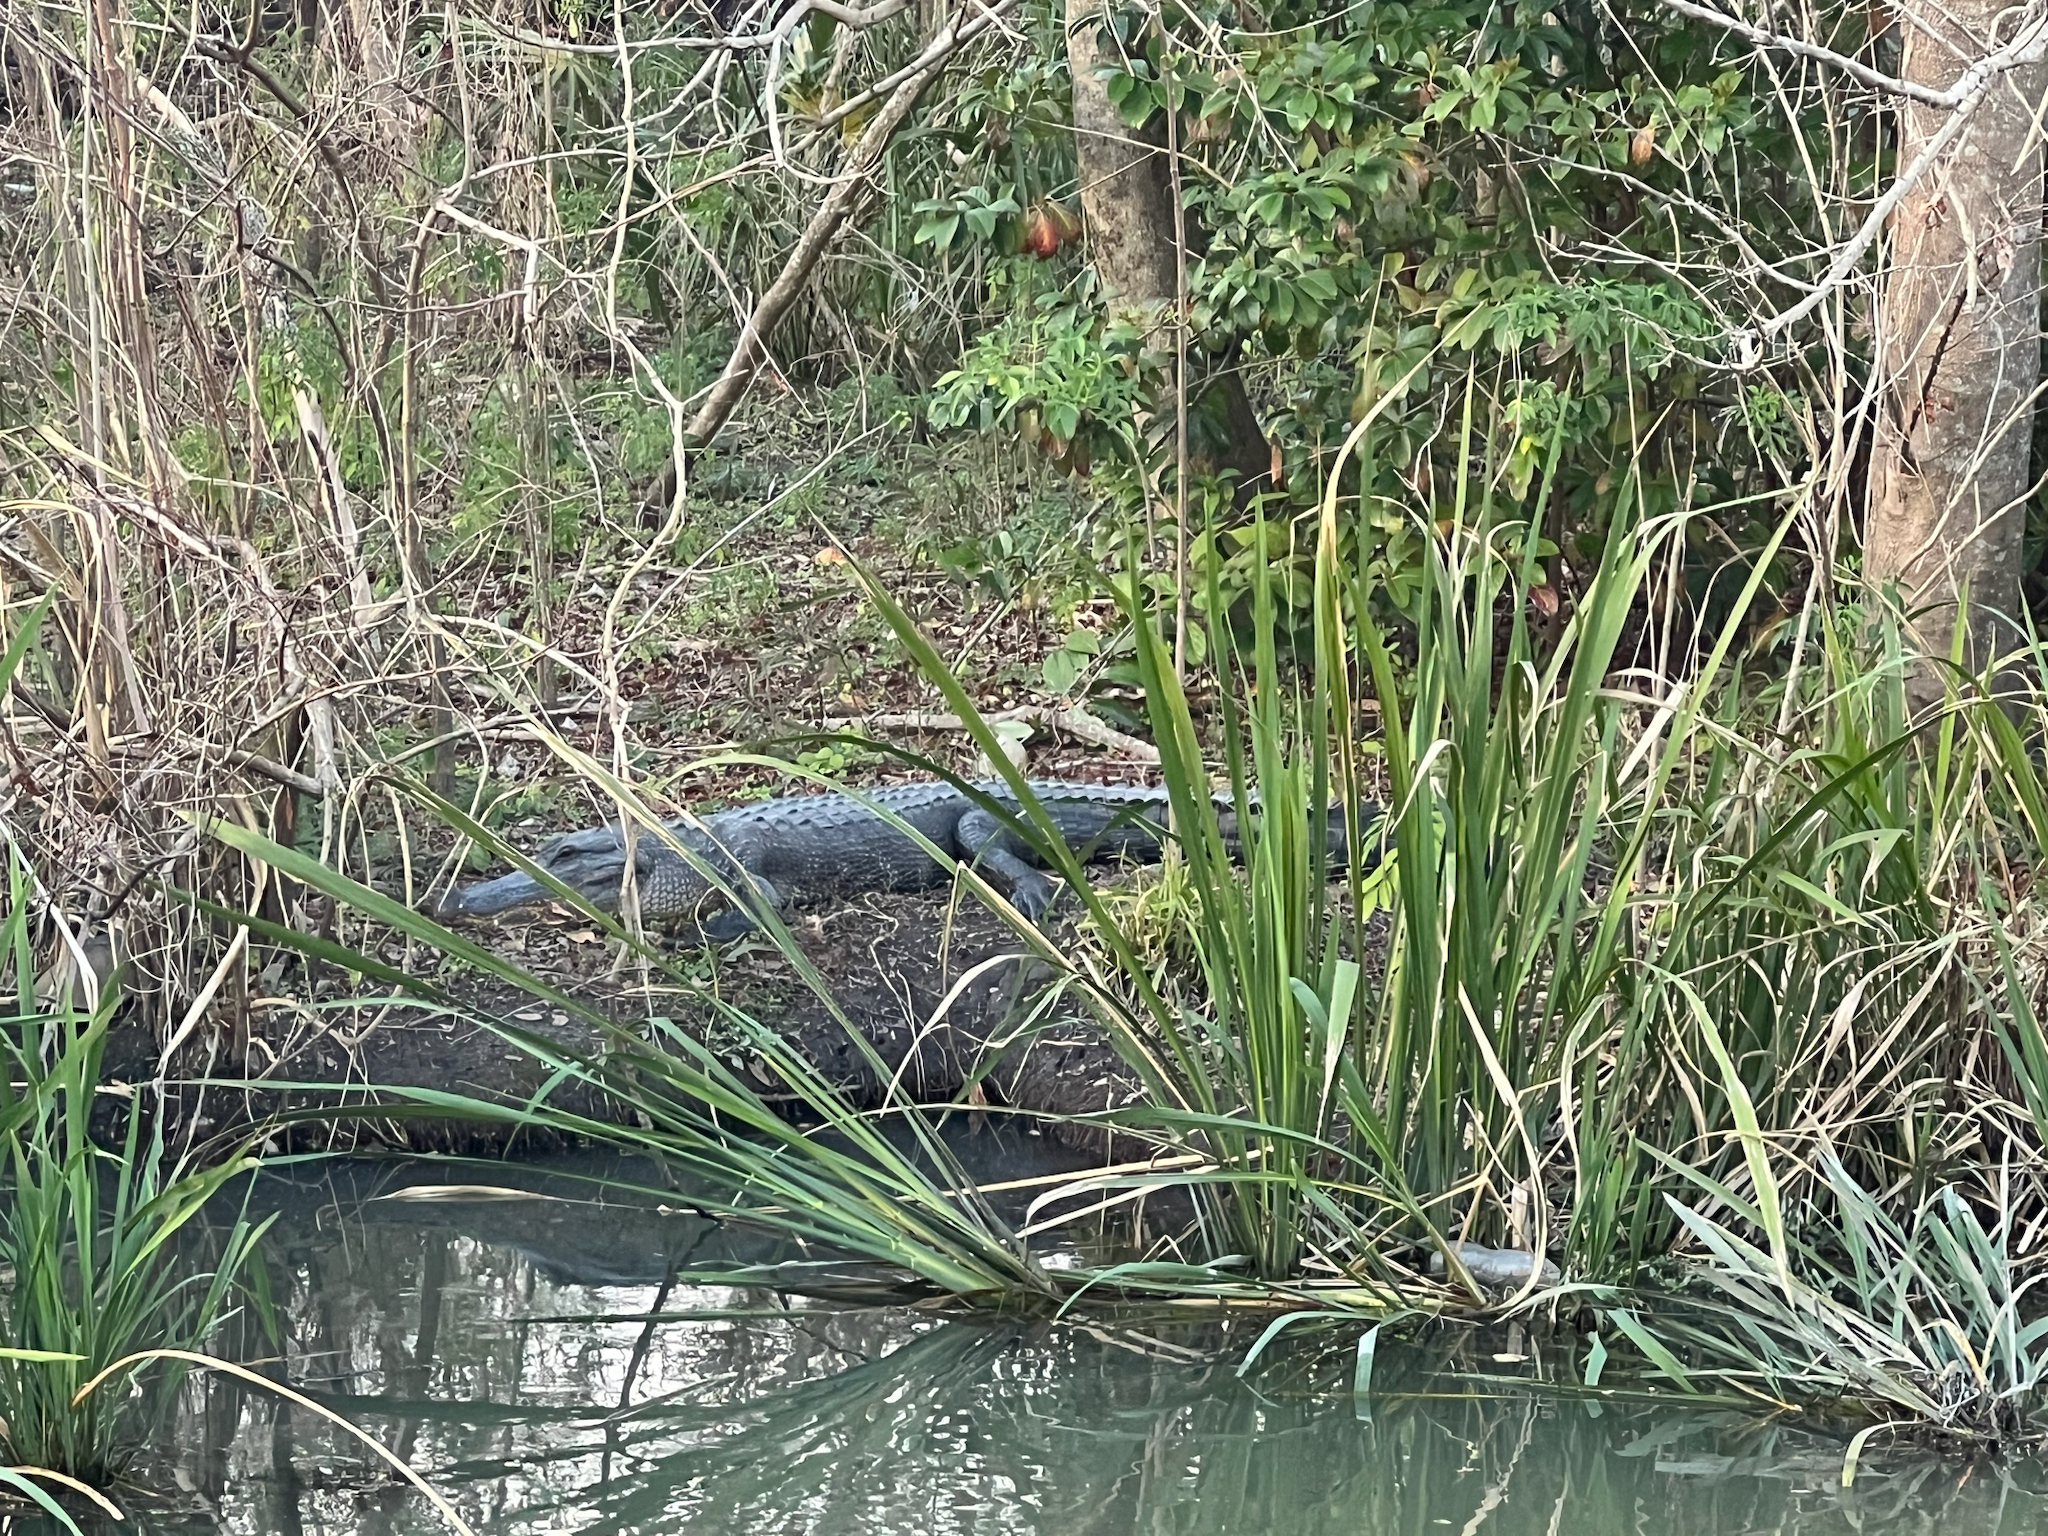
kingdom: Animalia
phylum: Chordata
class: Crocodylia
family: Alligatoridae
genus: Alligator
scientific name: Alligator mississippiensis
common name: American alligator
